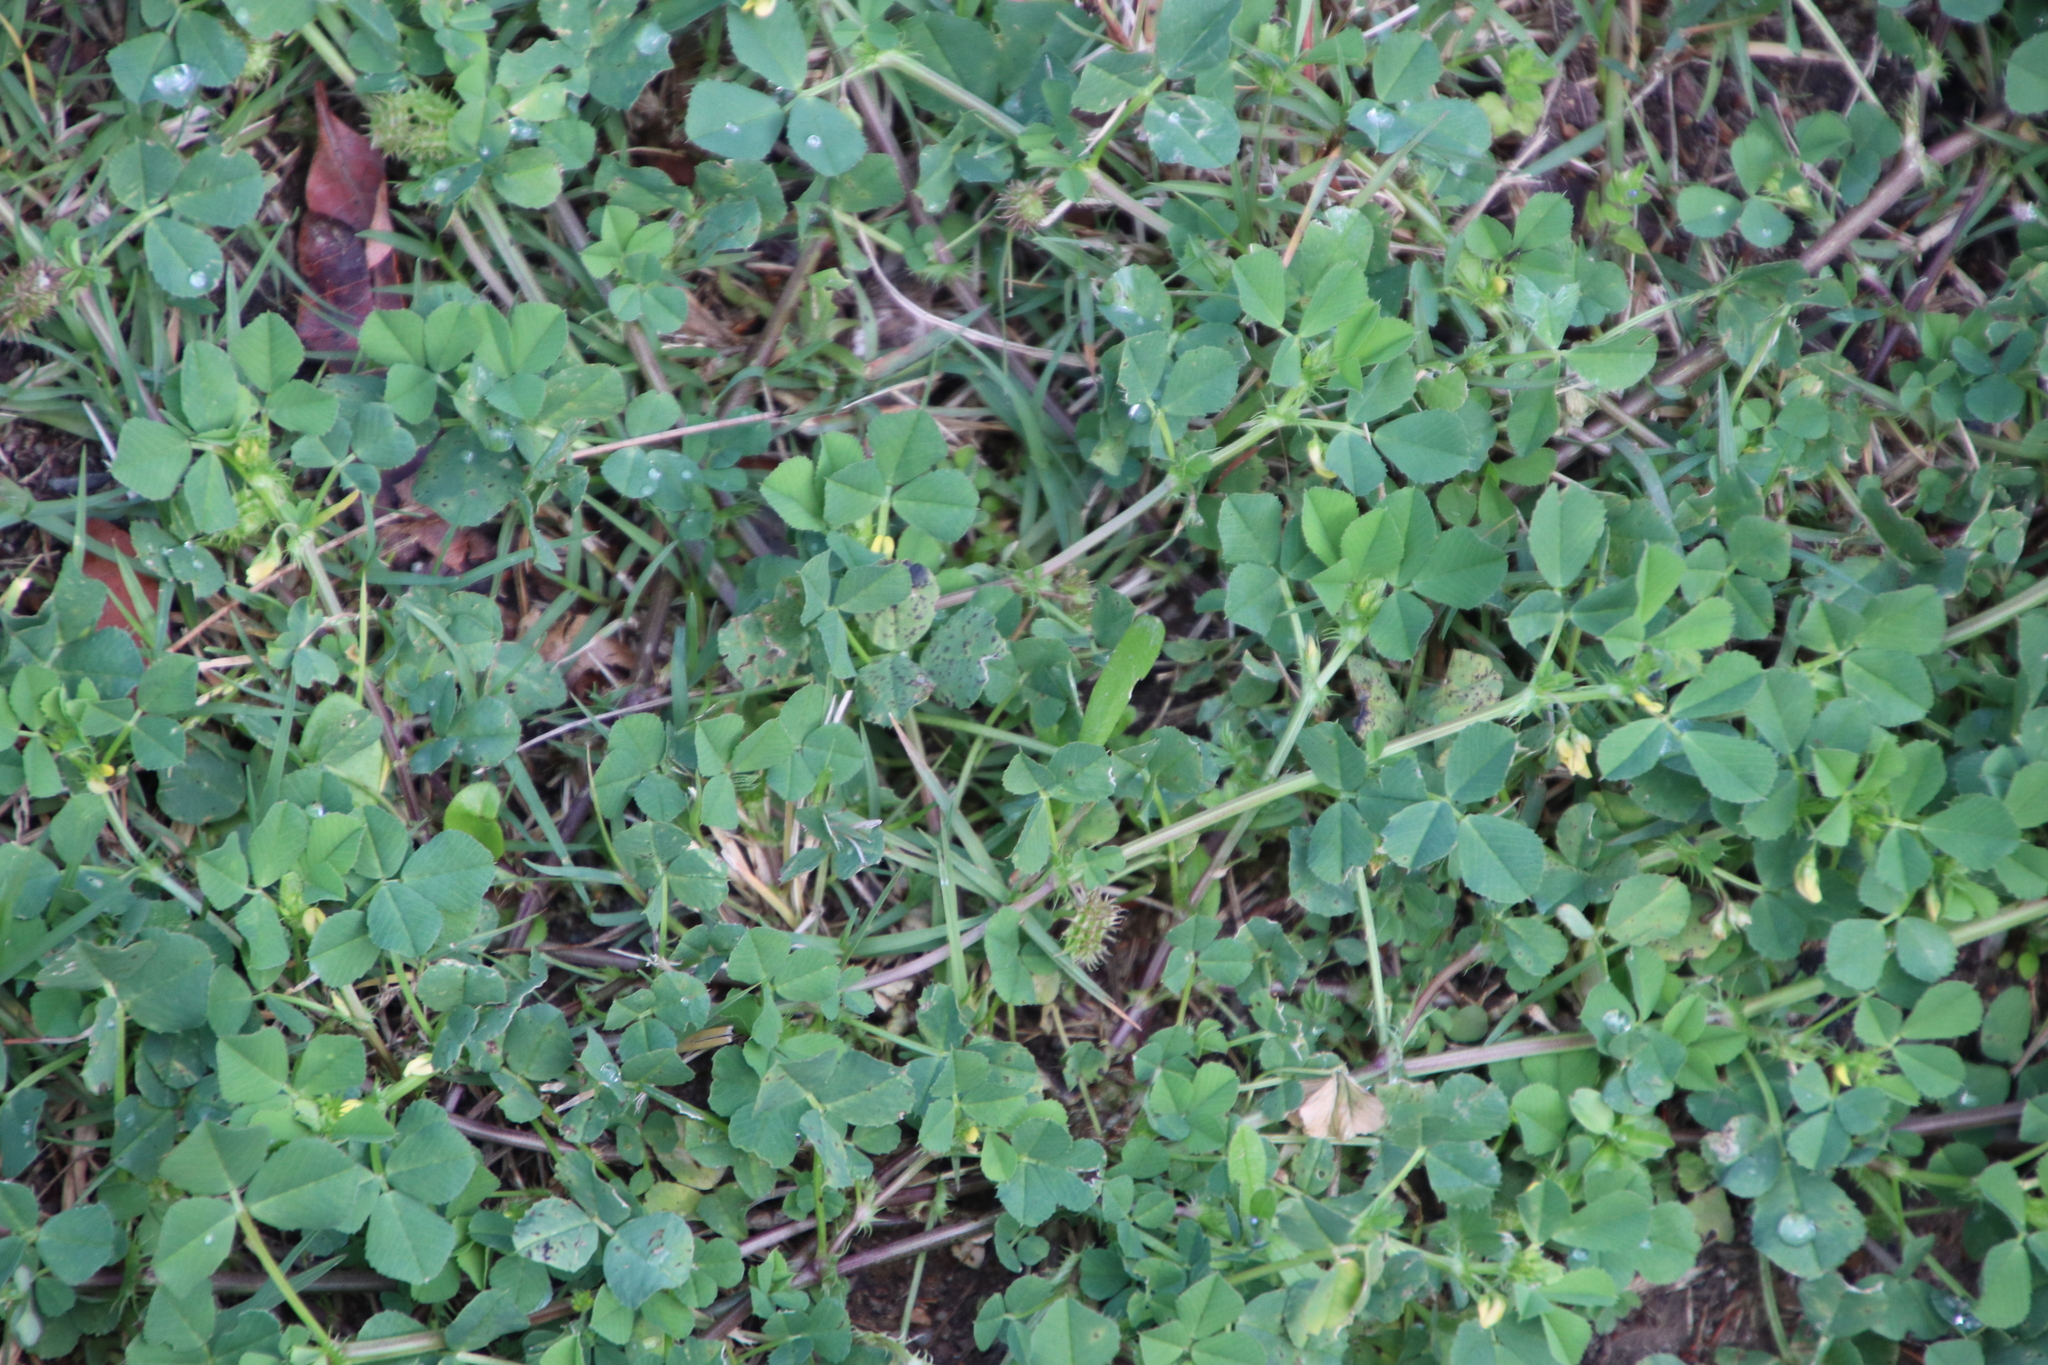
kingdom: Plantae
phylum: Tracheophyta
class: Magnoliopsida
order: Fabales
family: Fabaceae
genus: Medicago
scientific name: Medicago polymorpha
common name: Burclover
